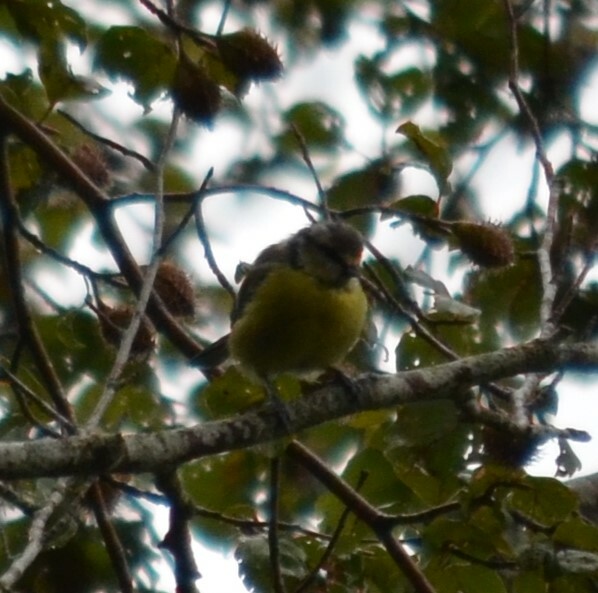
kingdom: Animalia
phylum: Chordata
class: Aves
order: Passeriformes
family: Paridae
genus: Cyanistes
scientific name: Cyanistes caeruleus
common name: Eurasian blue tit
